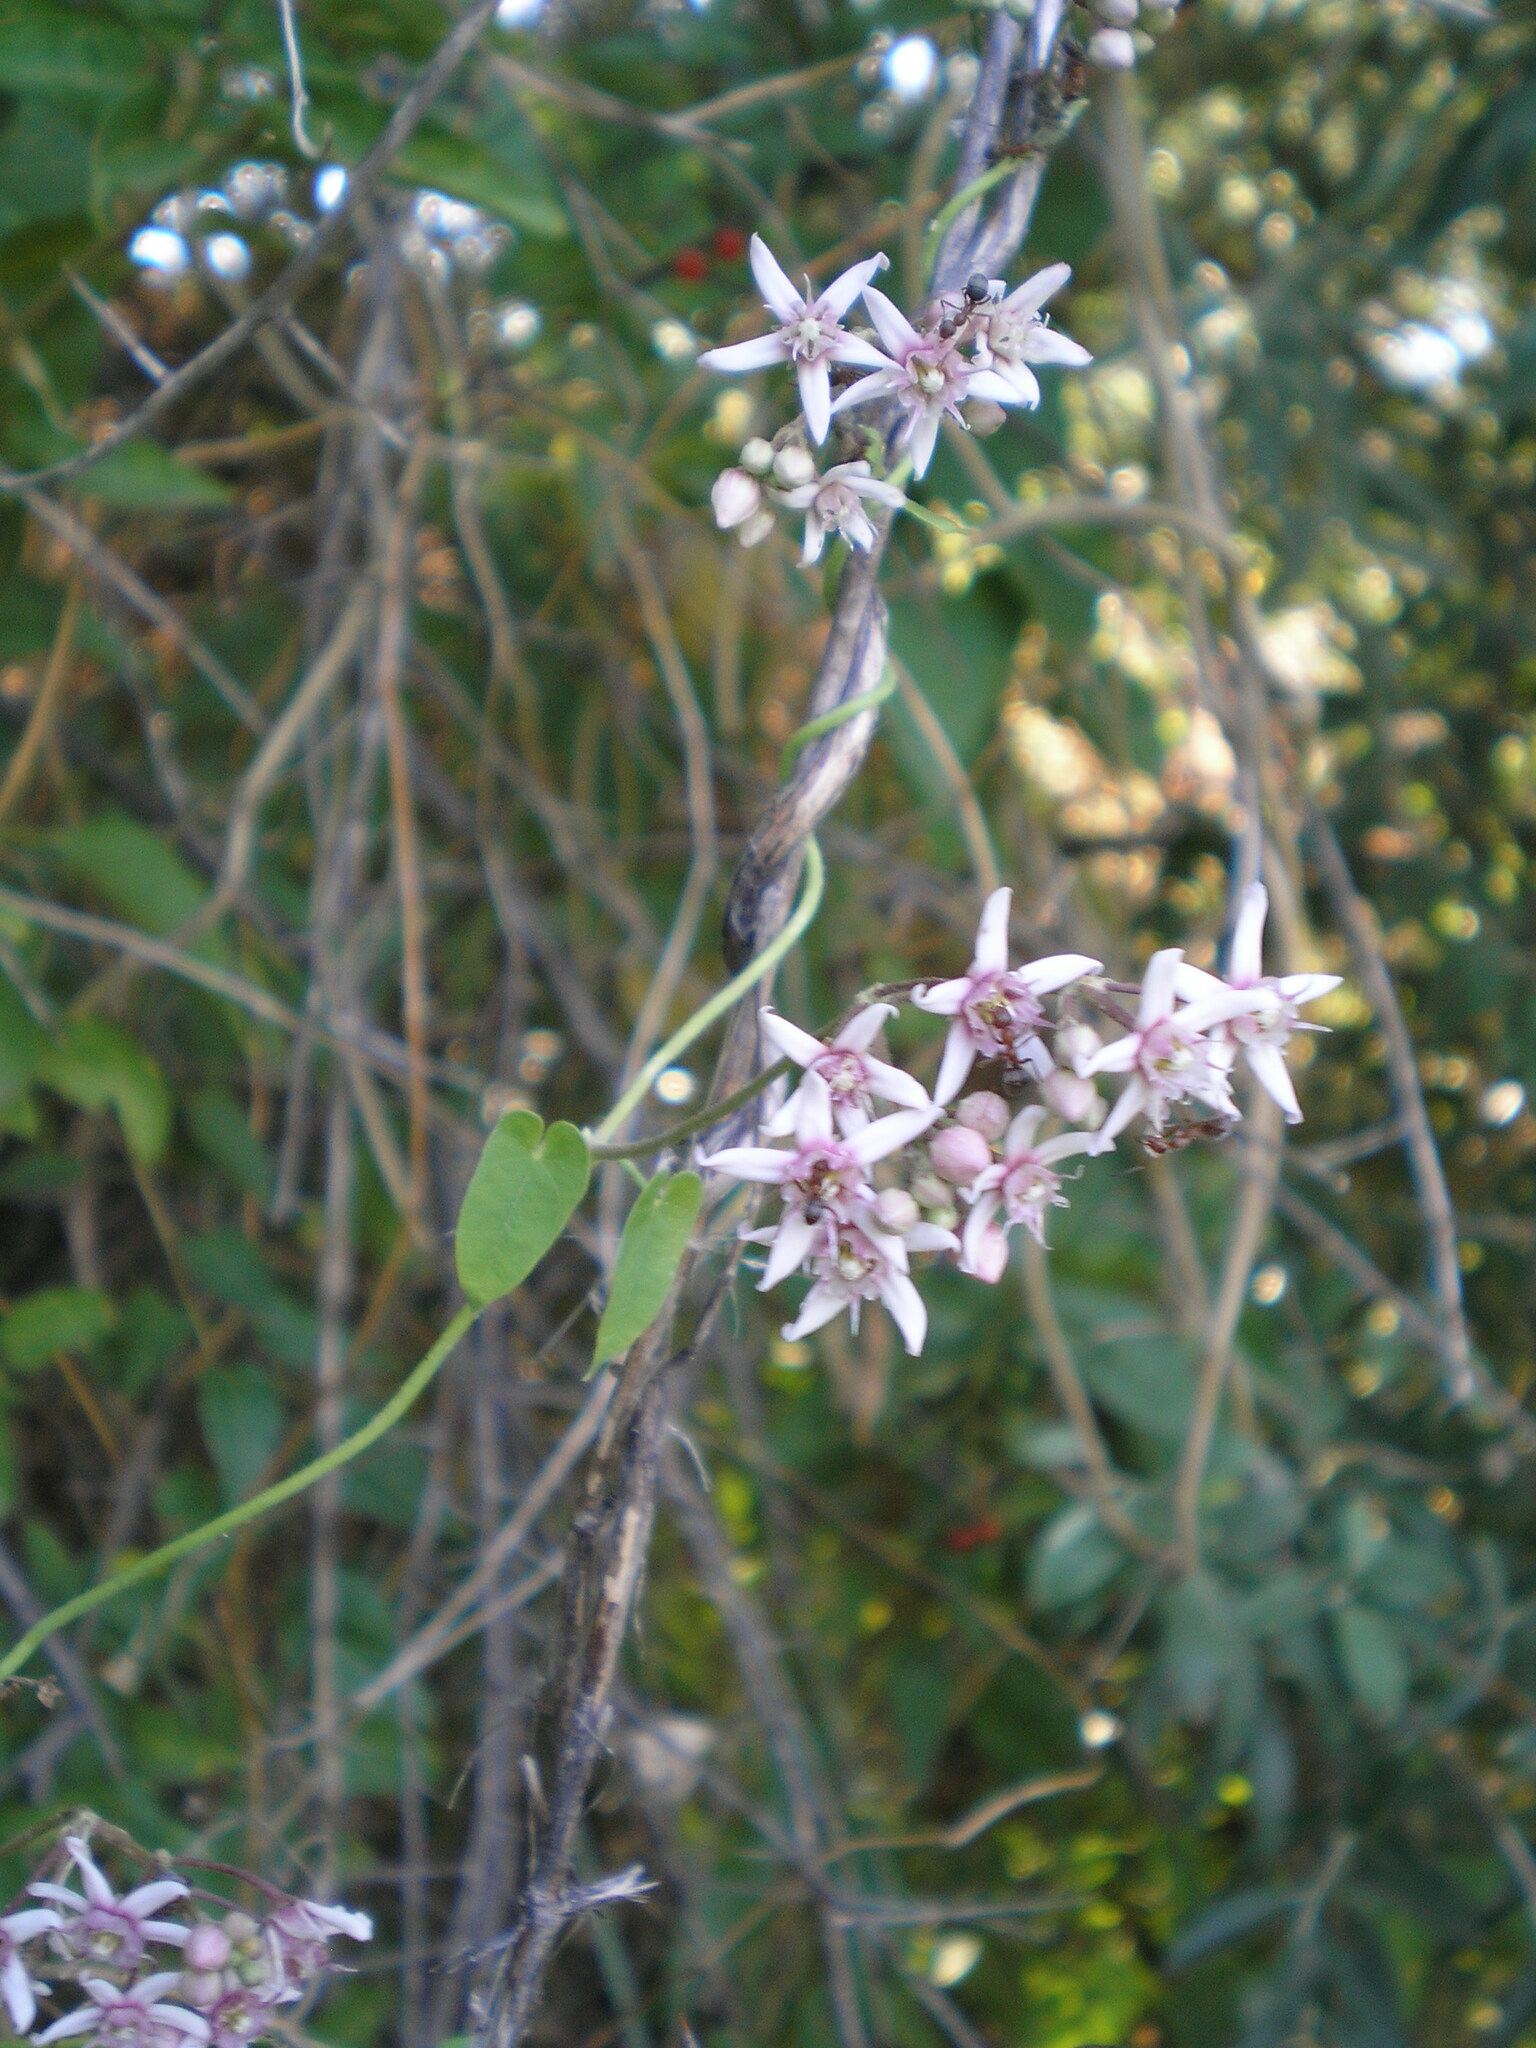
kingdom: Plantae
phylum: Tracheophyta
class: Magnoliopsida
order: Gentianales
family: Apocynaceae
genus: Cynanchum
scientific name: Cynanchum acutum
